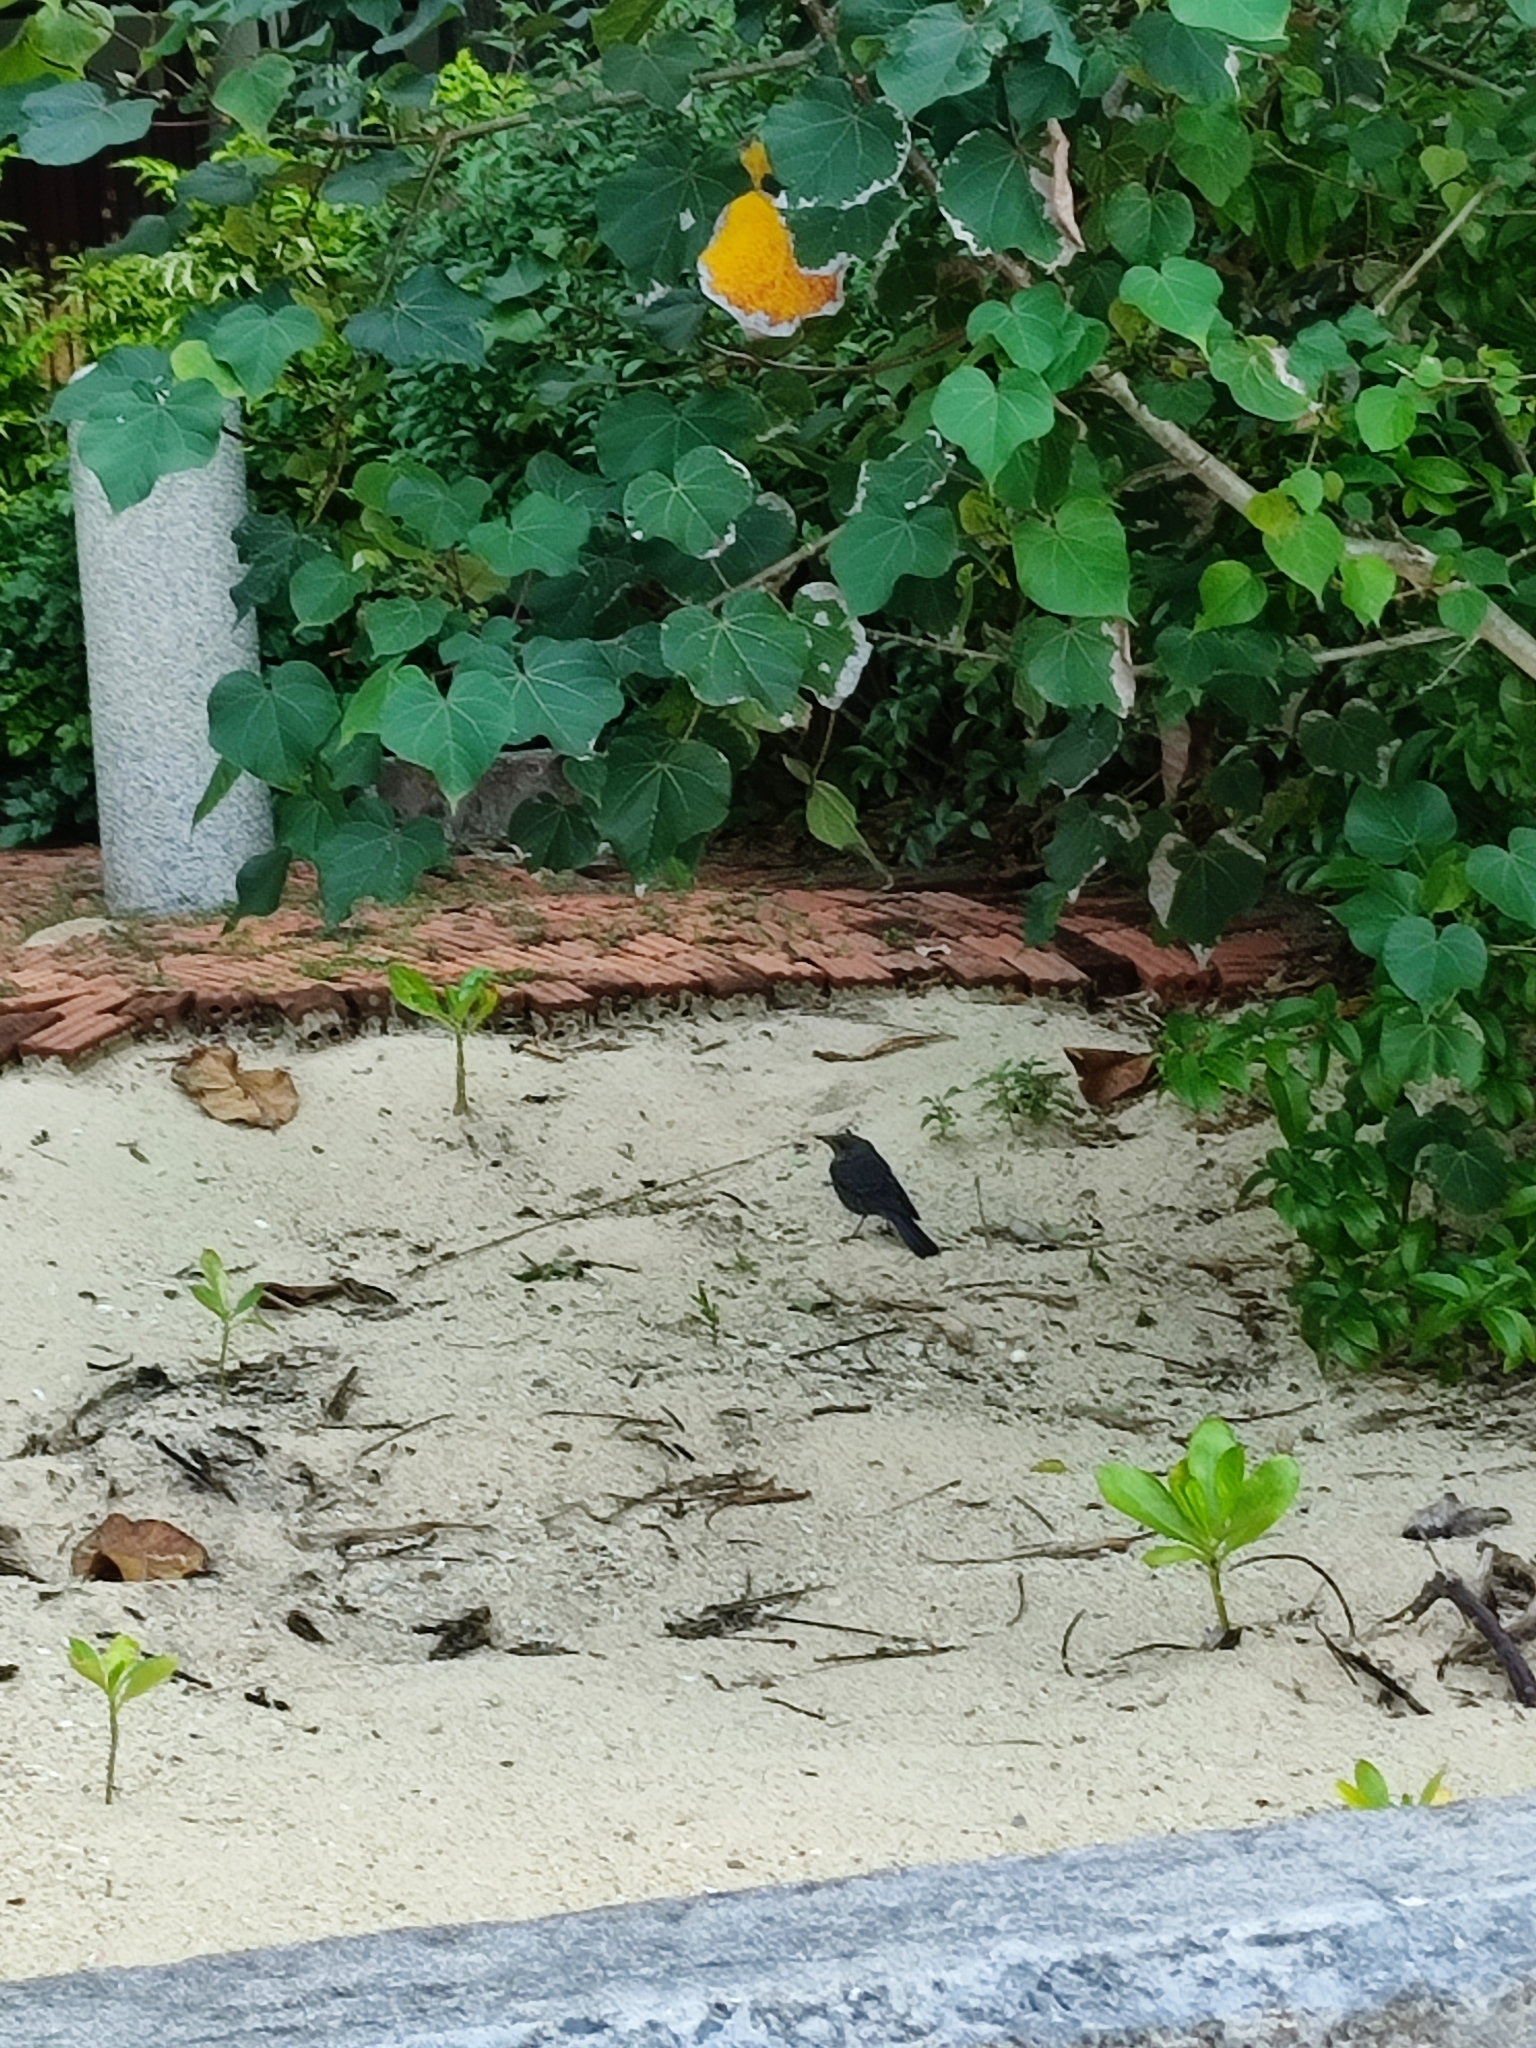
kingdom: Animalia
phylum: Chordata
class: Aves
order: Passeriformes
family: Muscicapidae
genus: Monticola
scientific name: Monticola solitarius
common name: Blue rock thrush
